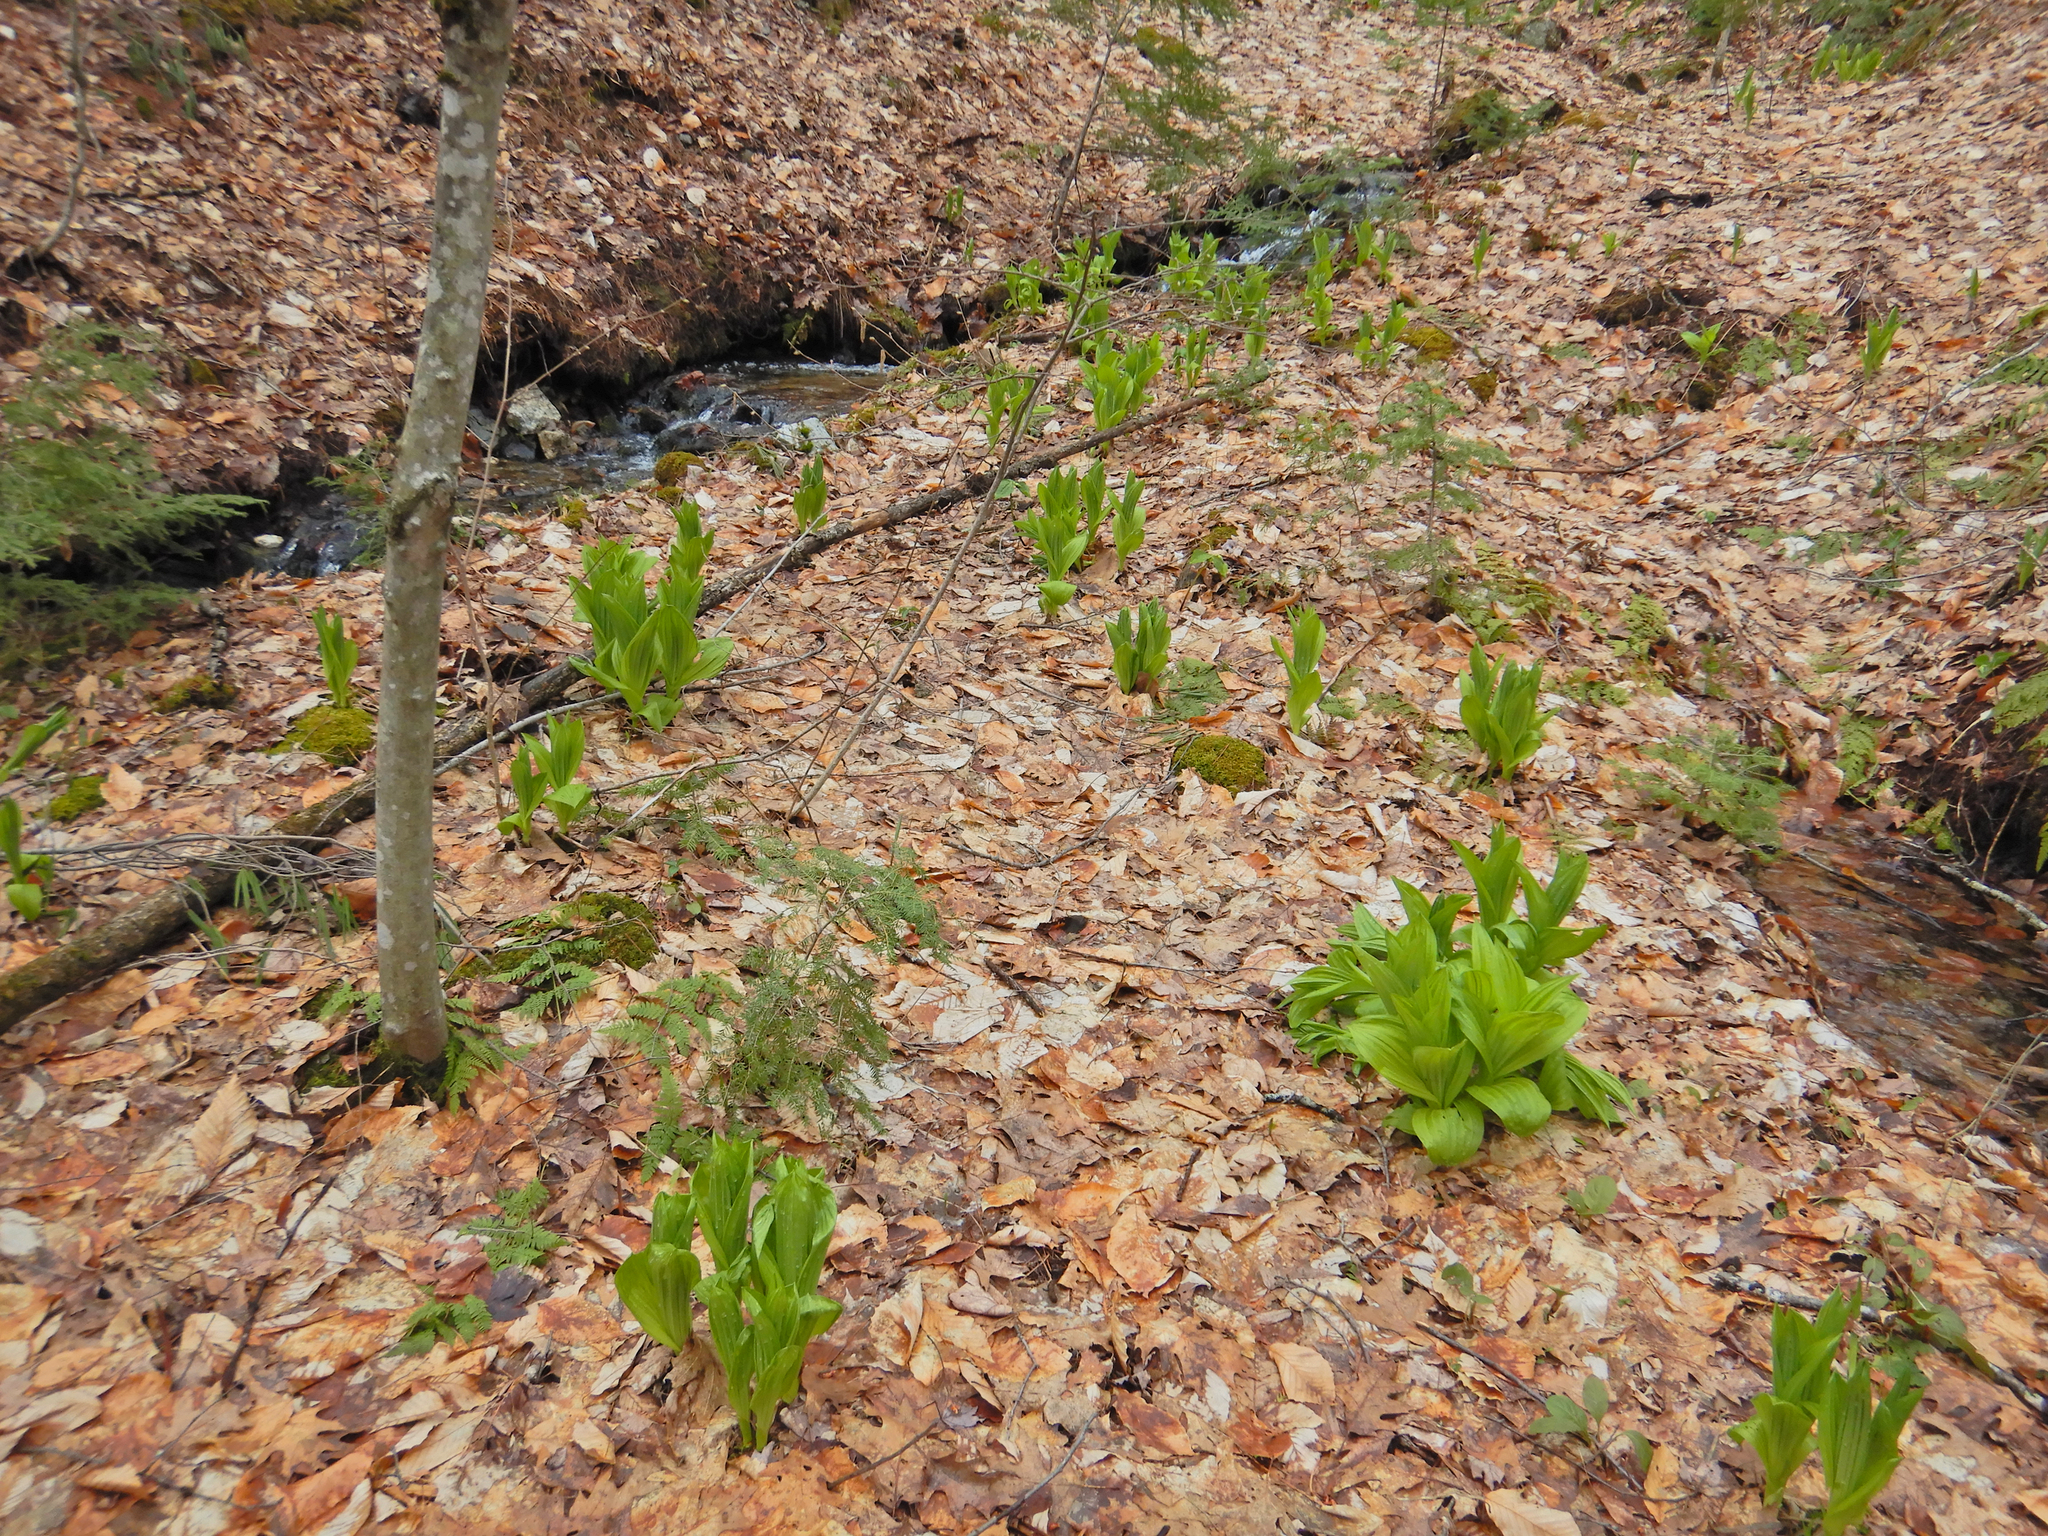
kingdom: Plantae
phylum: Tracheophyta
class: Liliopsida
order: Liliales
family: Melanthiaceae
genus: Veratrum
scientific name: Veratrum viride
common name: American false hellebore
